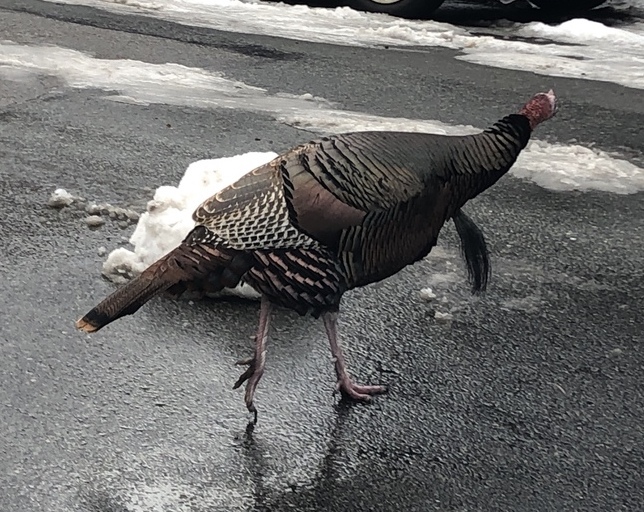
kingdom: Animalia
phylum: Chordata
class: Aves
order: Galliformes
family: Phasianidae
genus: Meleagris
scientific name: Meleagris gallopavo
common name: Wild turkey
